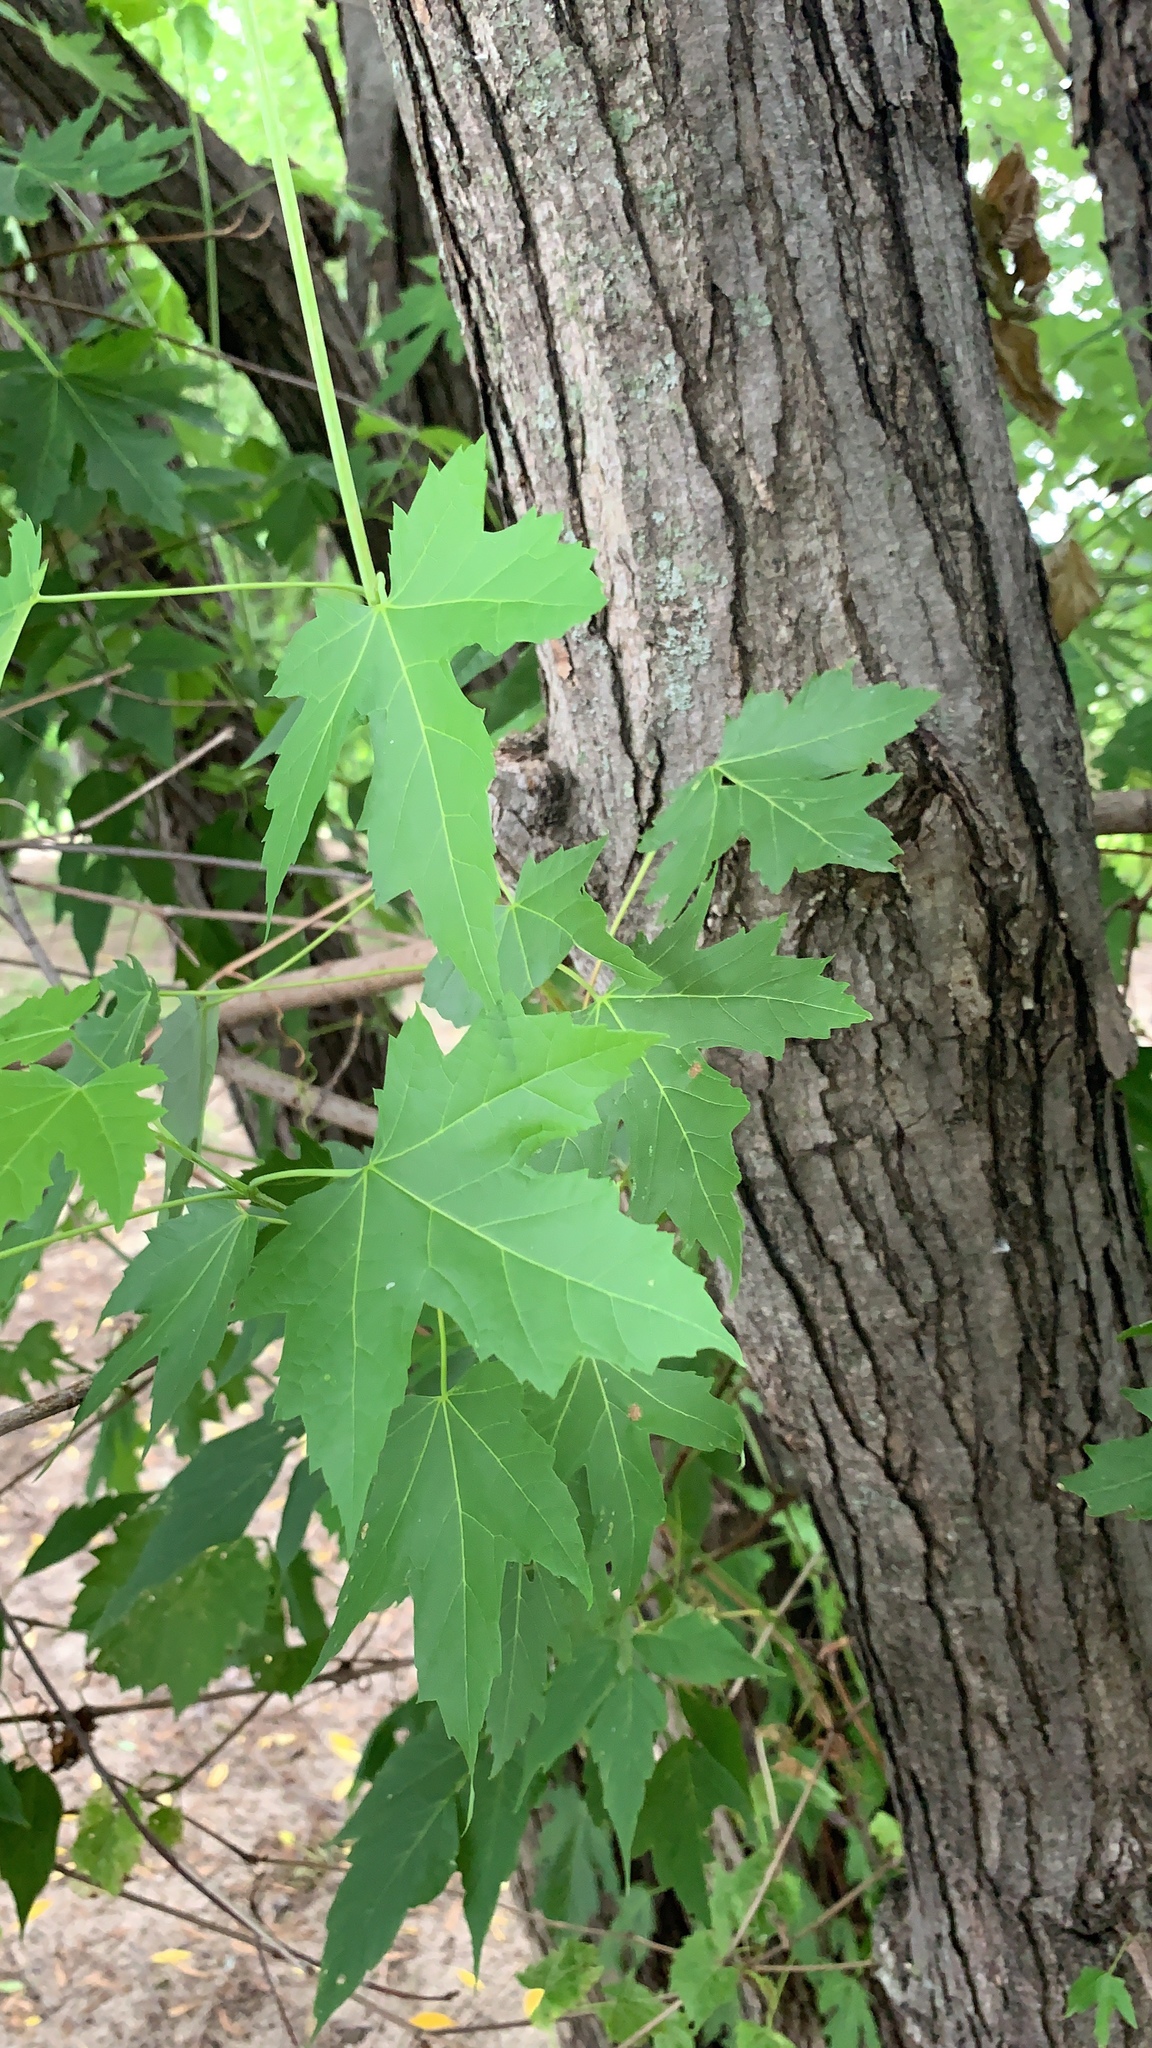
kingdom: Plantae
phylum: Tracheophyta
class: Magnoliopsida
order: Sapindales
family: Sapindaceae
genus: Acer
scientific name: Acer saccharinum
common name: Silver maple
